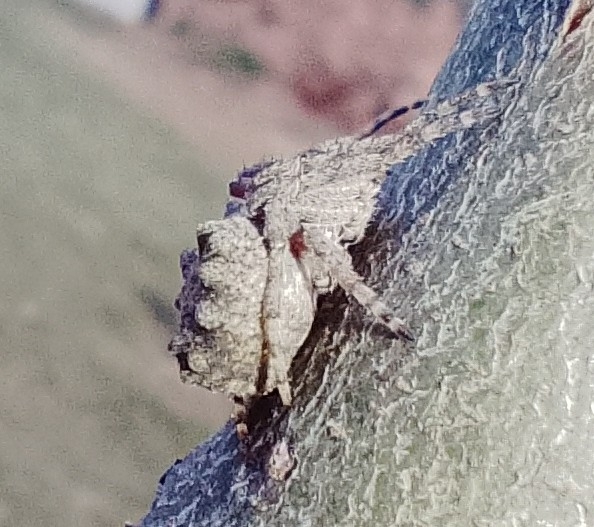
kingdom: Animalia
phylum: Arthropoda
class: Arachnida
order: Araneae
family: Araneidae
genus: Parawixia
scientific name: Parawixia audax
